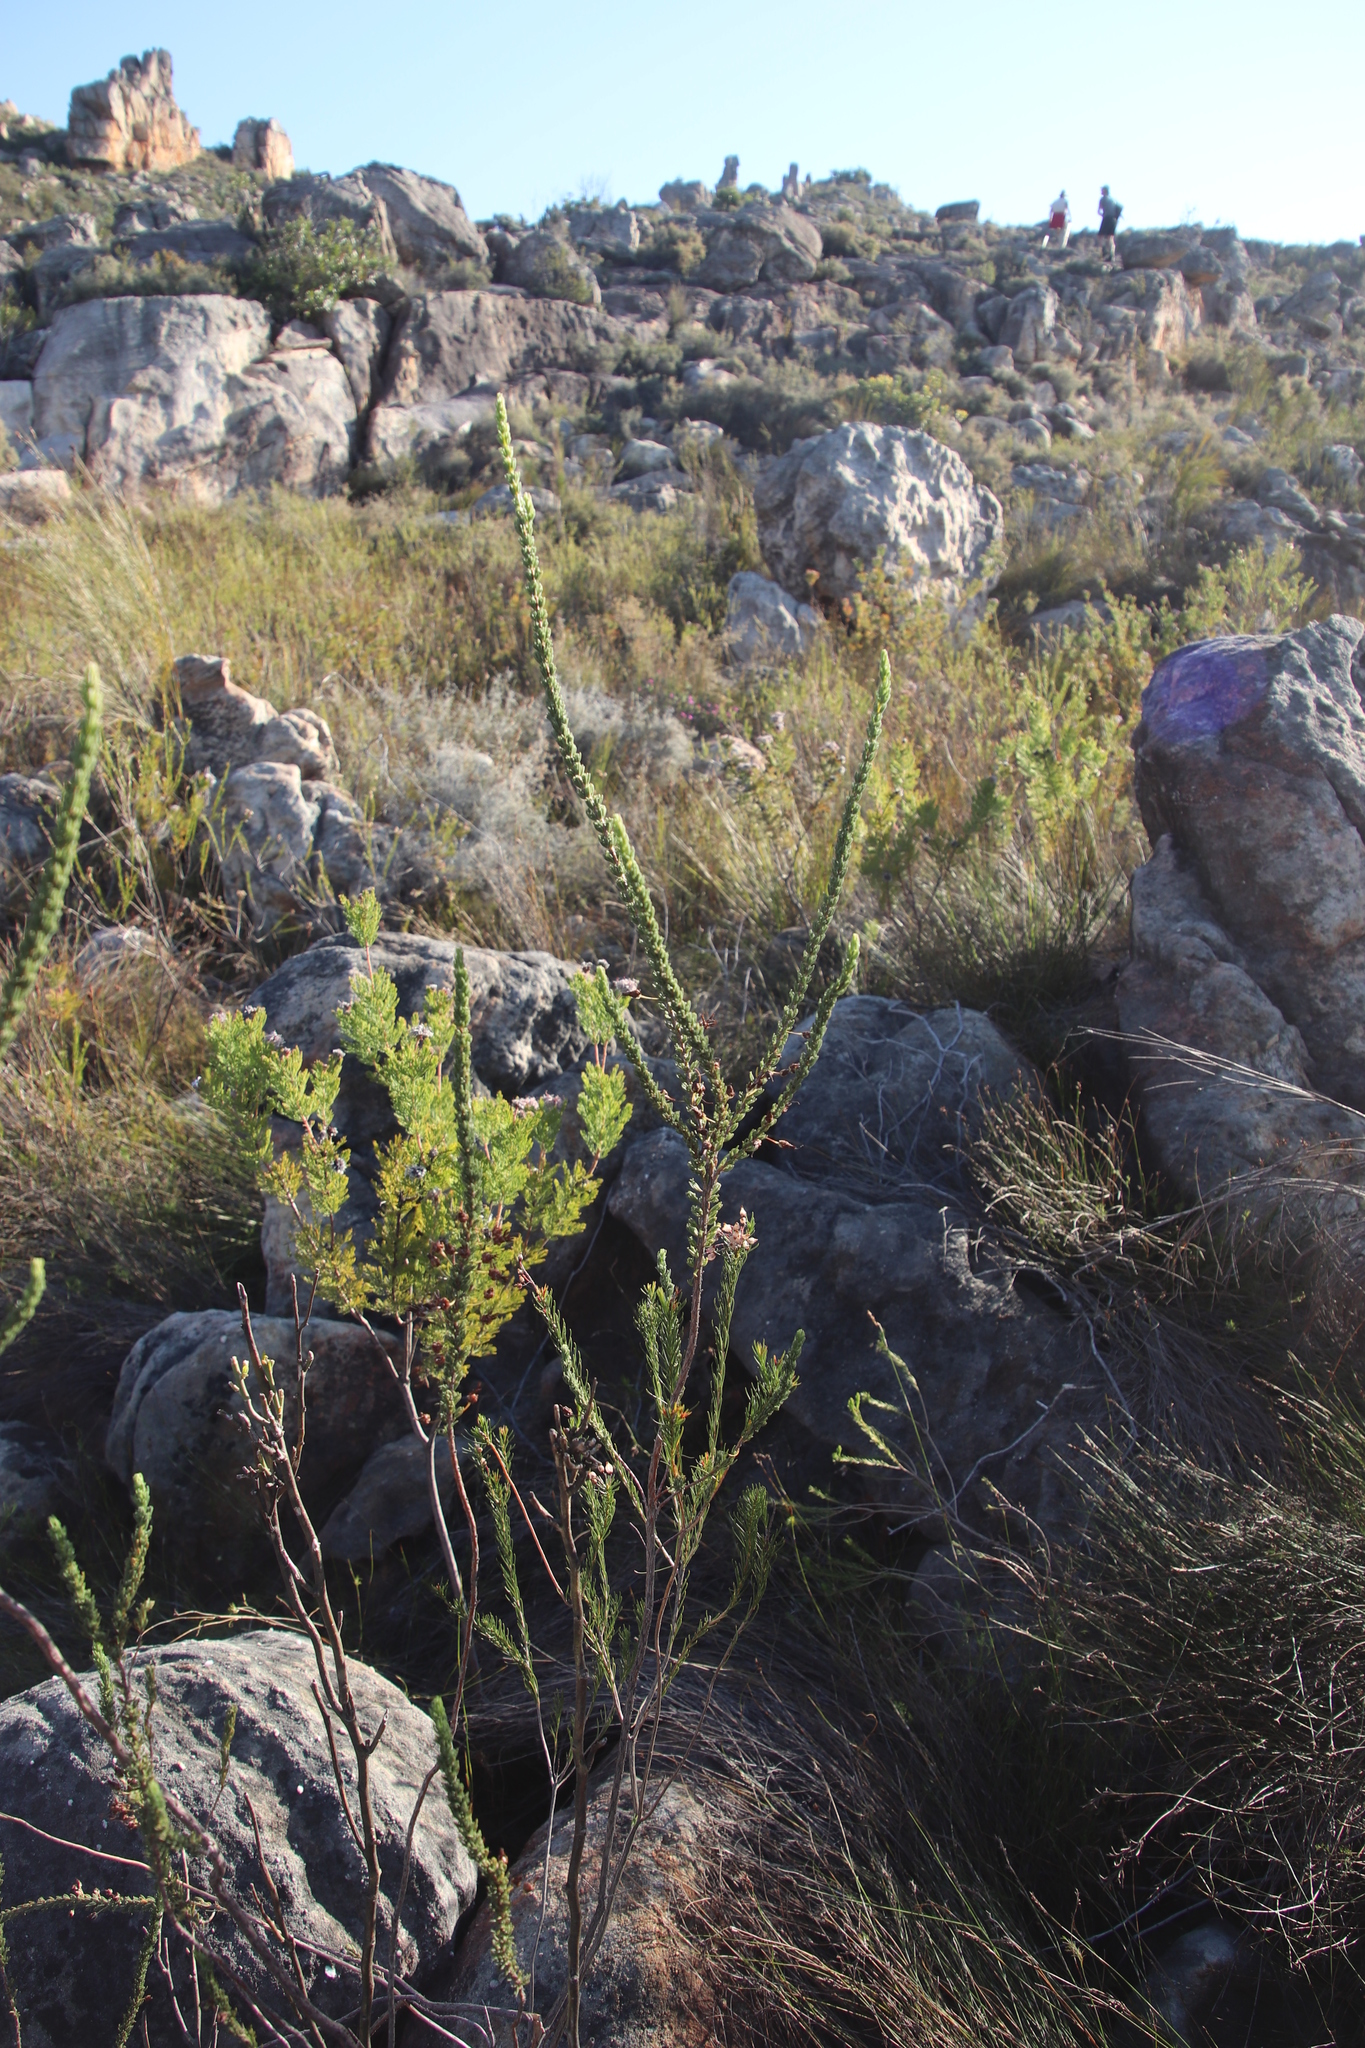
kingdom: Plantae
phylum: Tracheophyta
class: Magnoliopsida
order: Ericales
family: Ericaceae
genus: Erica
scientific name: Erica plukenetii
